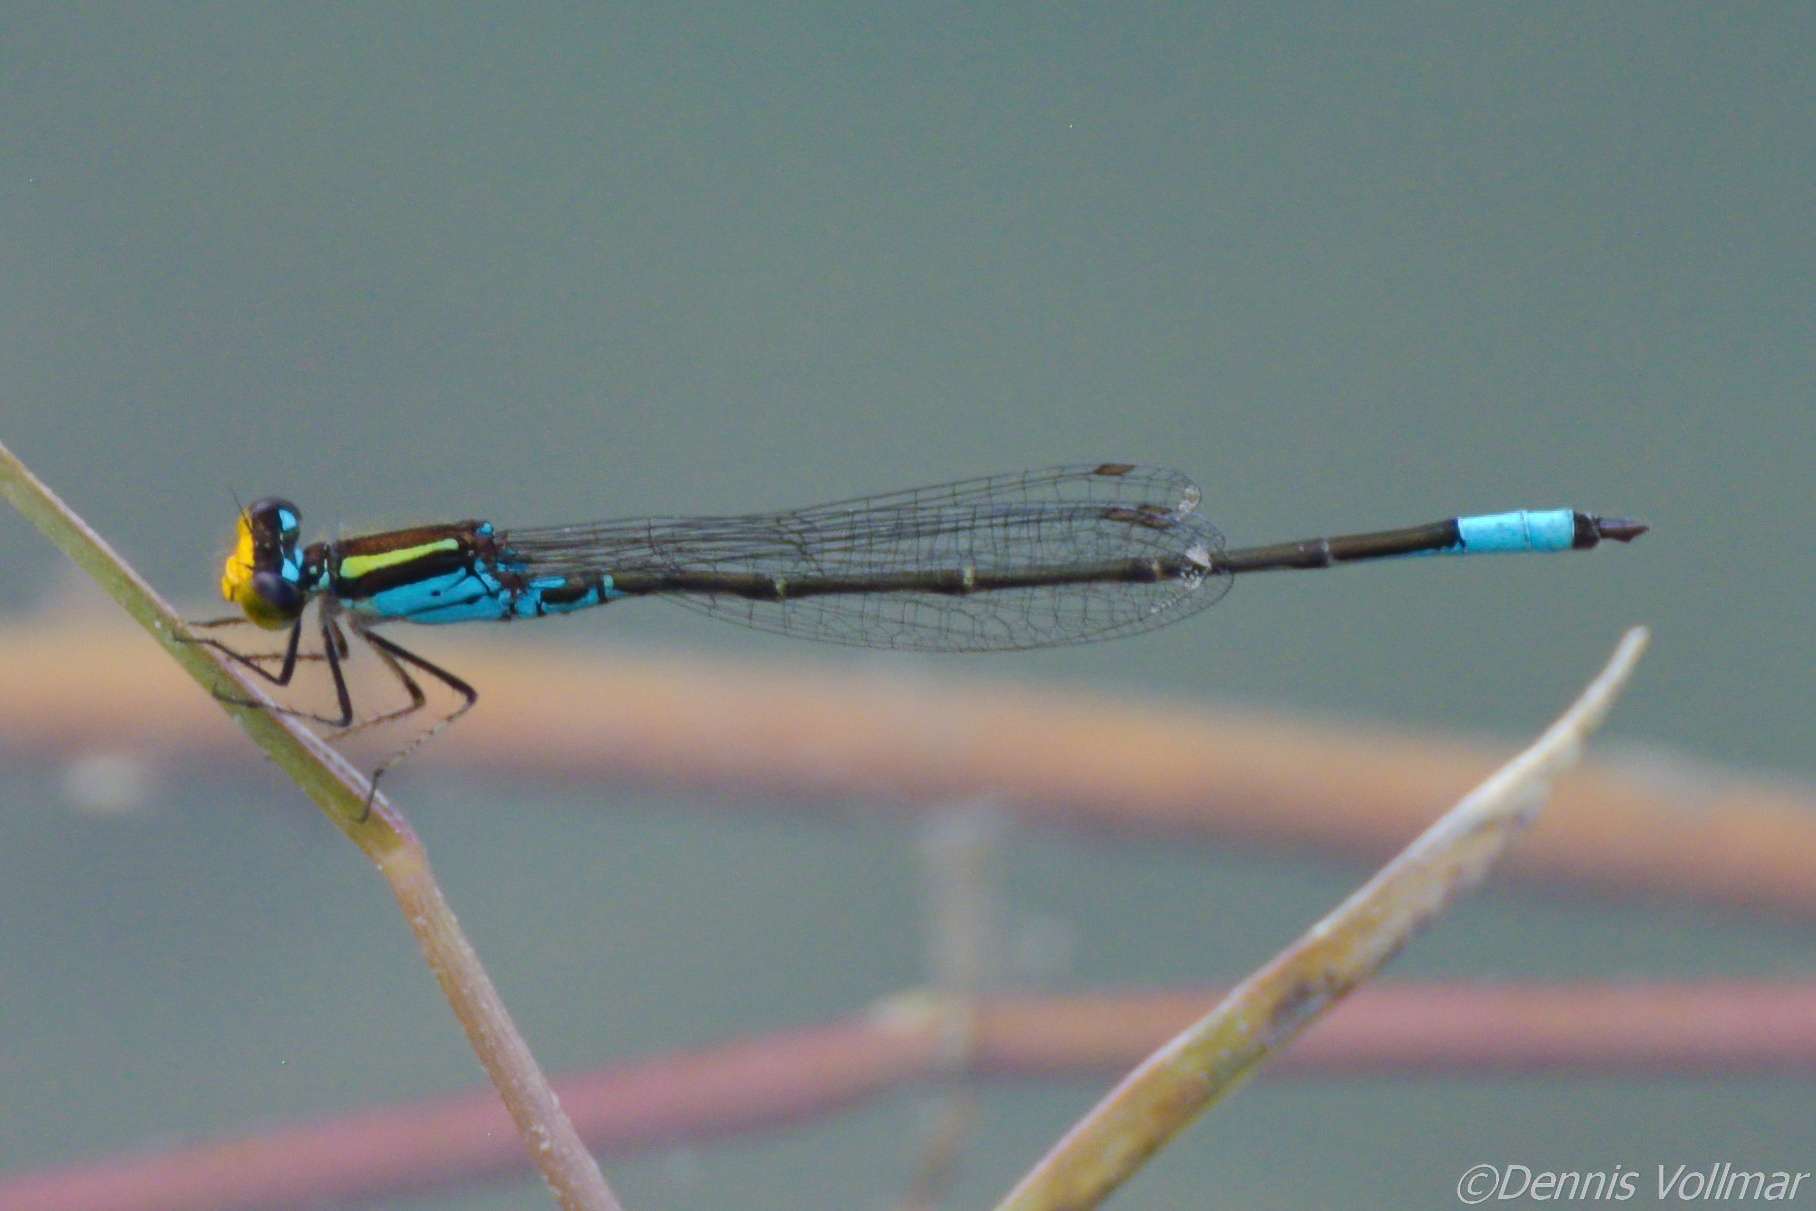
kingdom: Animalia
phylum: Arthropoda
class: Insecta
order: Odonata
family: Coenagrionidae
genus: Neoerythromma
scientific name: Neoerythromma cultellatum
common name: Caribbean yellowface
